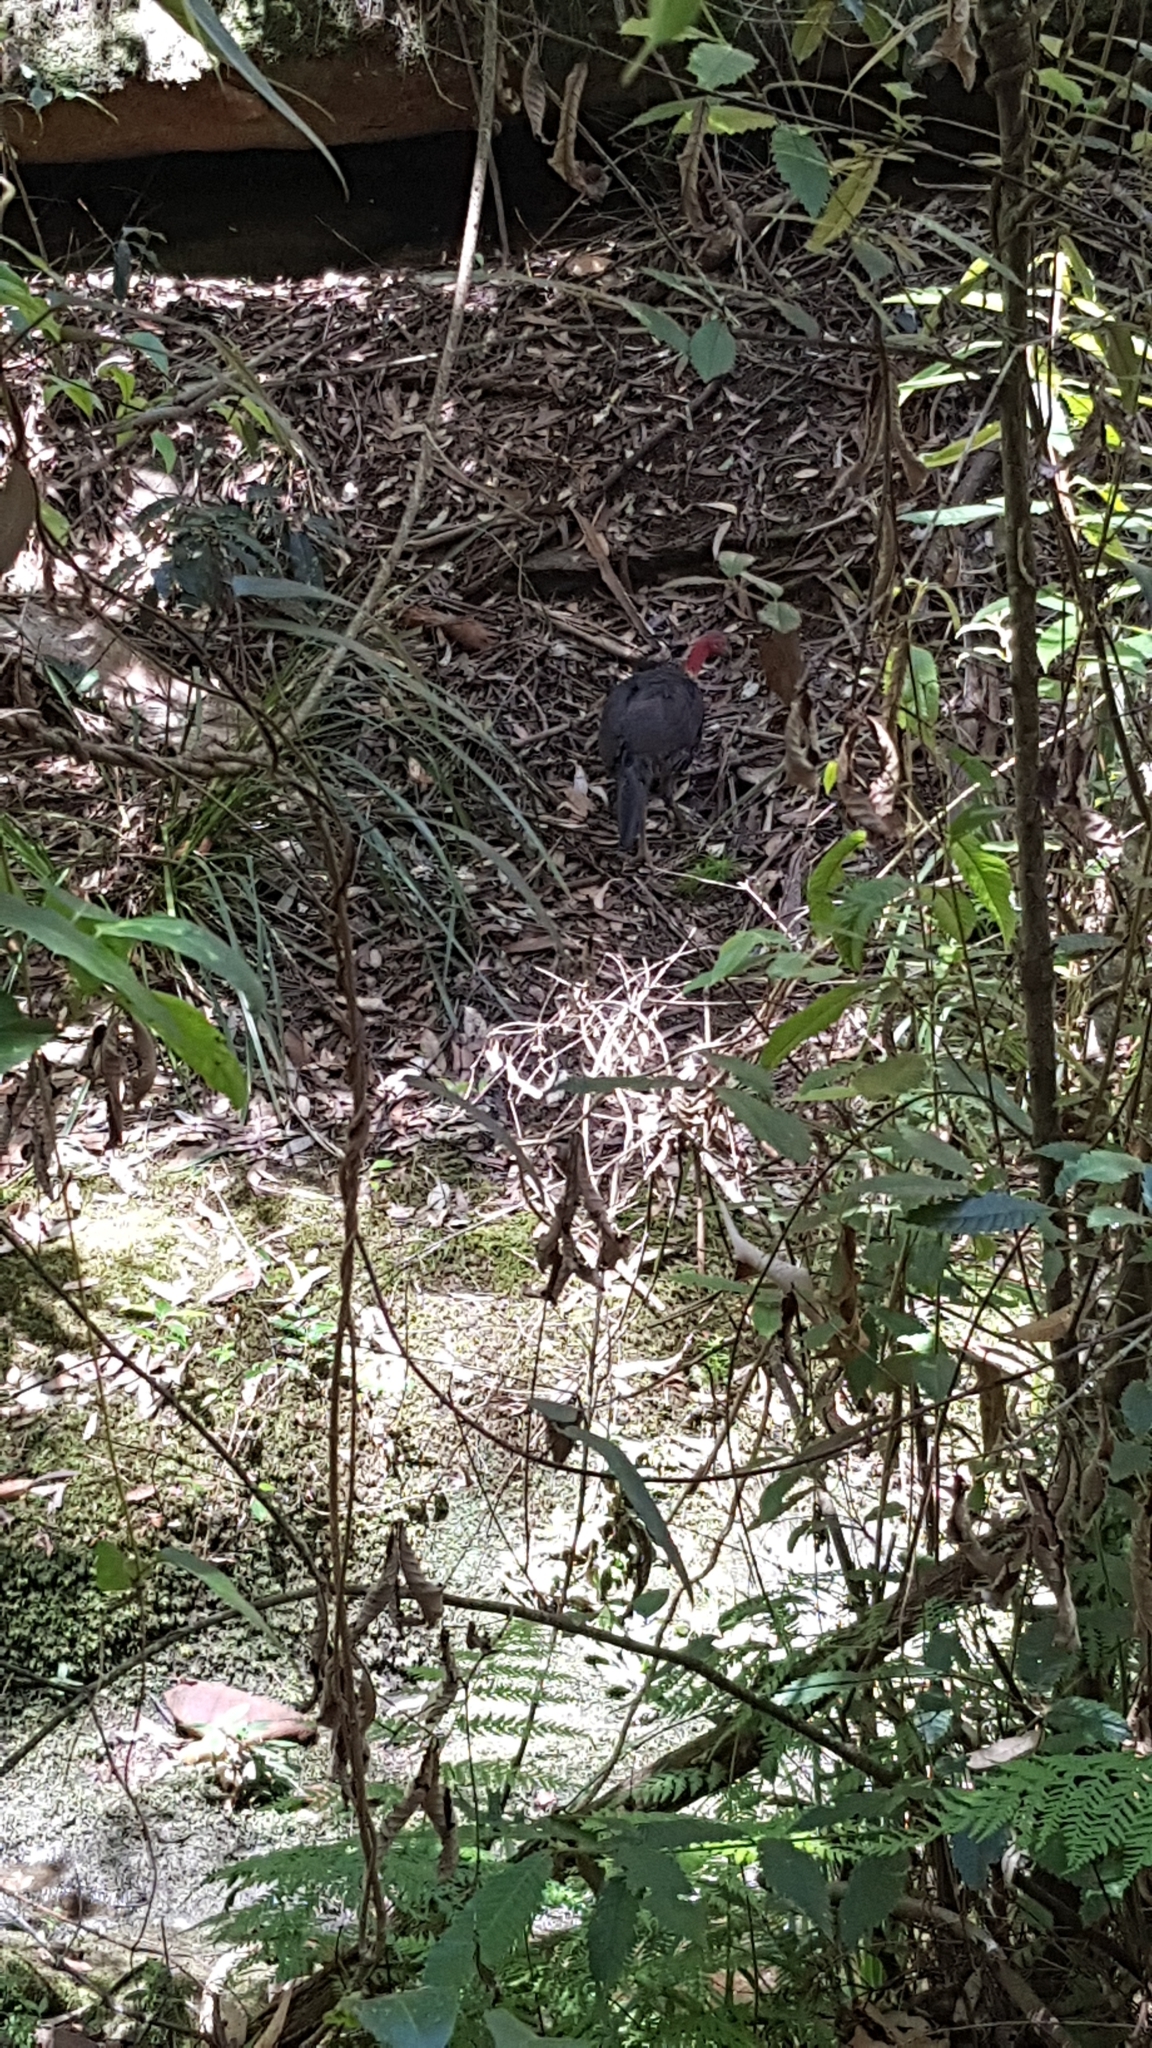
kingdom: Animalia
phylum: Chordata
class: Aves
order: Galliformes
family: Megapodiidae
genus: Alectura
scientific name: Alectura lathami
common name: Australian brushturkey
